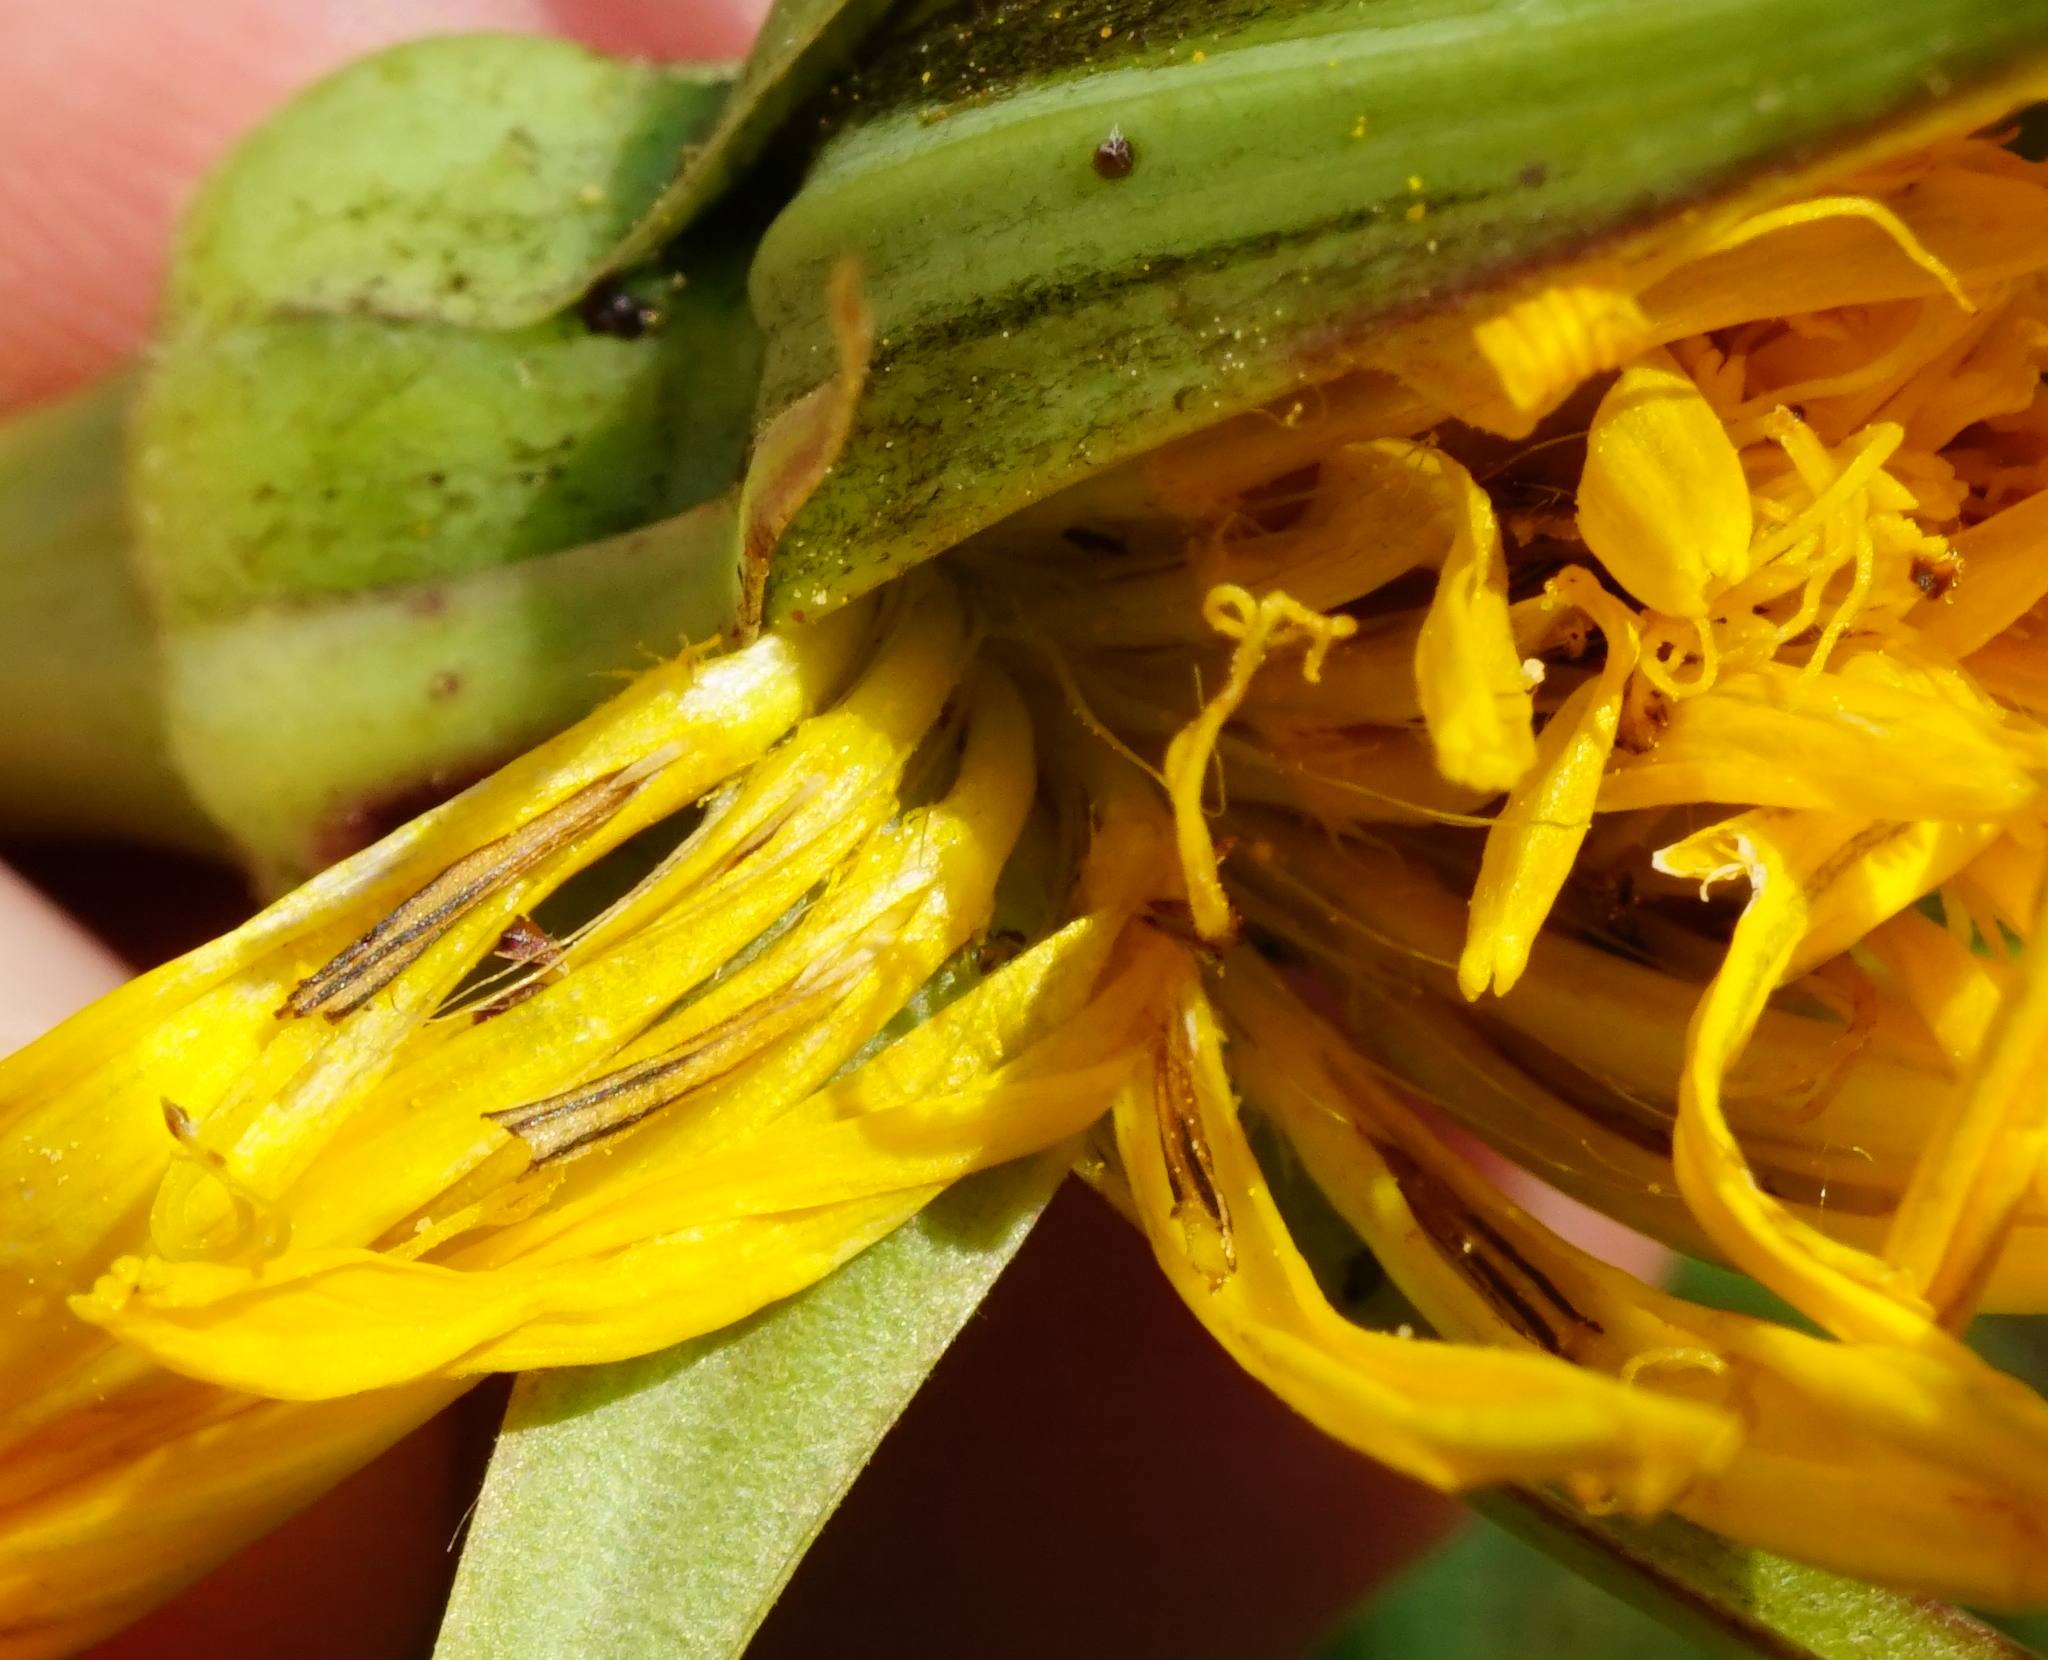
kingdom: Plantae
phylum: Tracheophyta
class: Magnoliopsida
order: Asterales
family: Asteraceae
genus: Tragopogon
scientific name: Tragopogon orientalis
